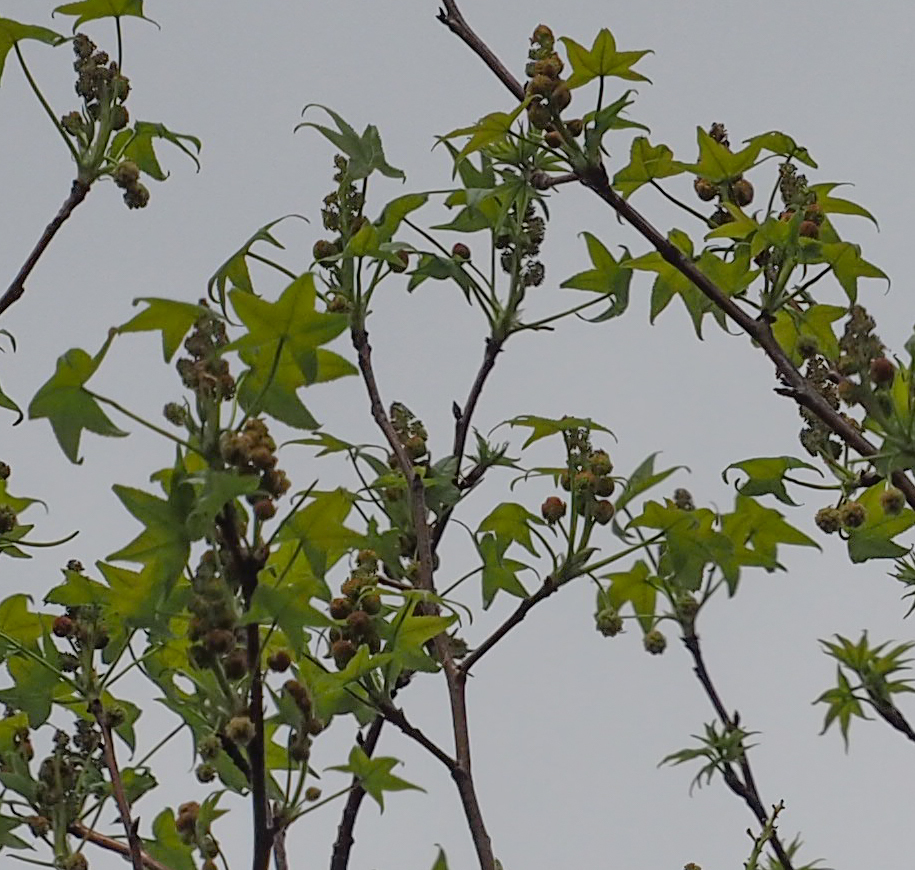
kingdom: Plantae
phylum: Tracheophyta
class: Magnoliopsida
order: Saxifragales
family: Altingiaceae
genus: Liquidambar
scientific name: Liquidambar styraciflua
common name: Sweet gum
